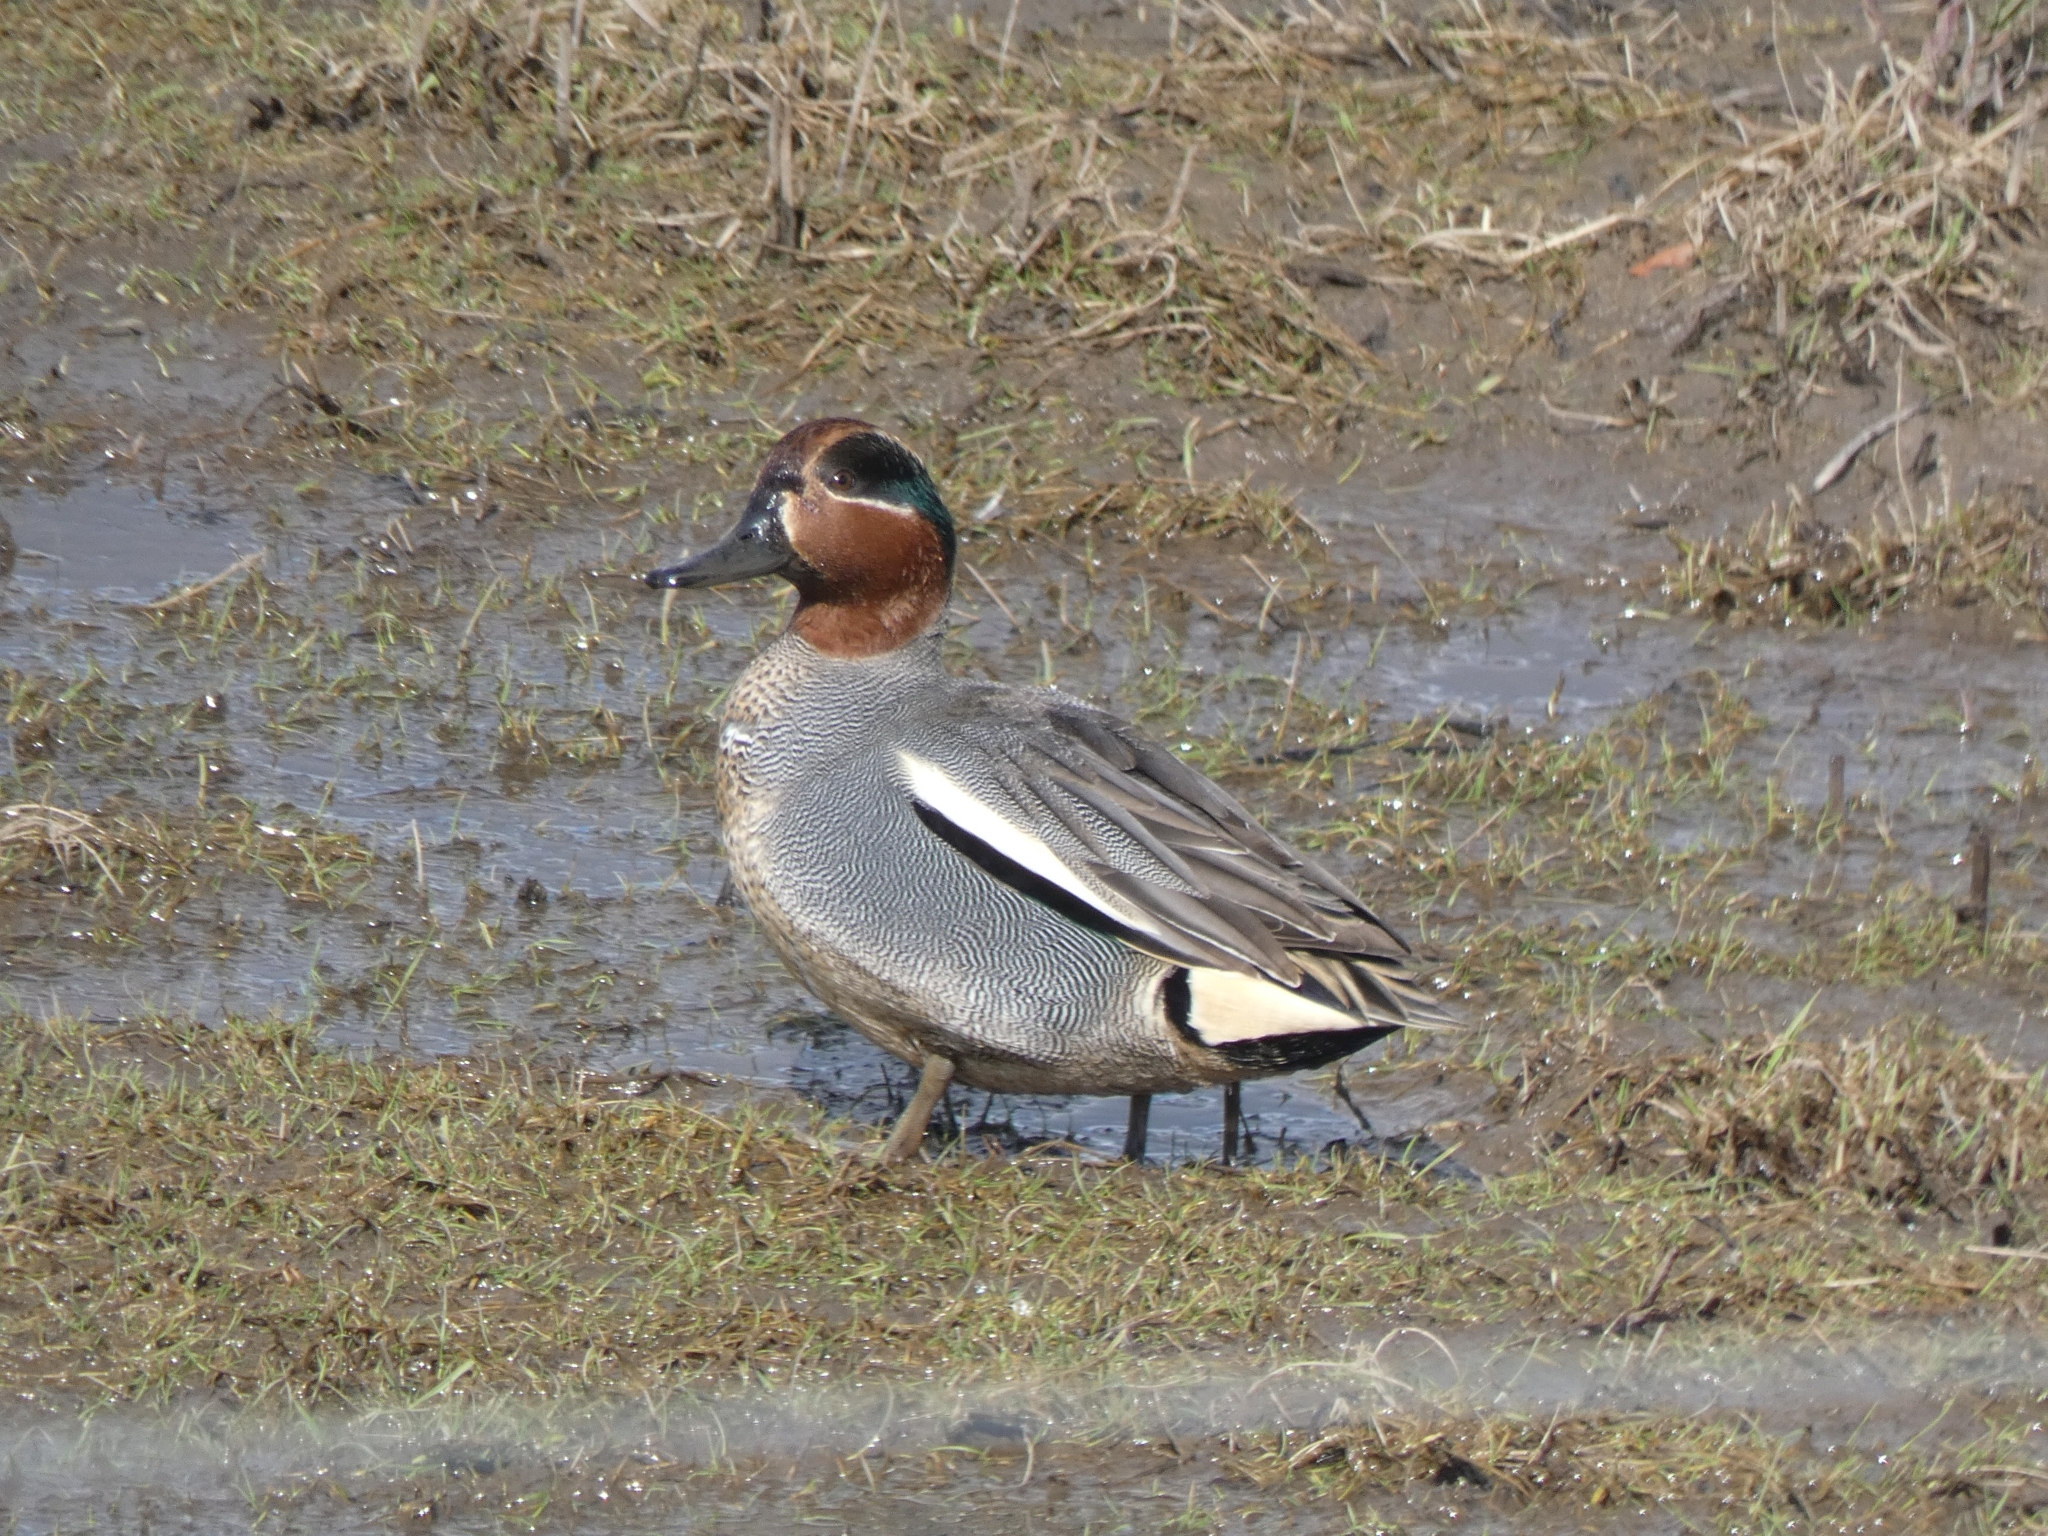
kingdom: Animalia
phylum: Chordata
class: Aves
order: Anseriformes
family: Anatidae
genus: Anas
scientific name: Anas crecca
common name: Eurasian teal
